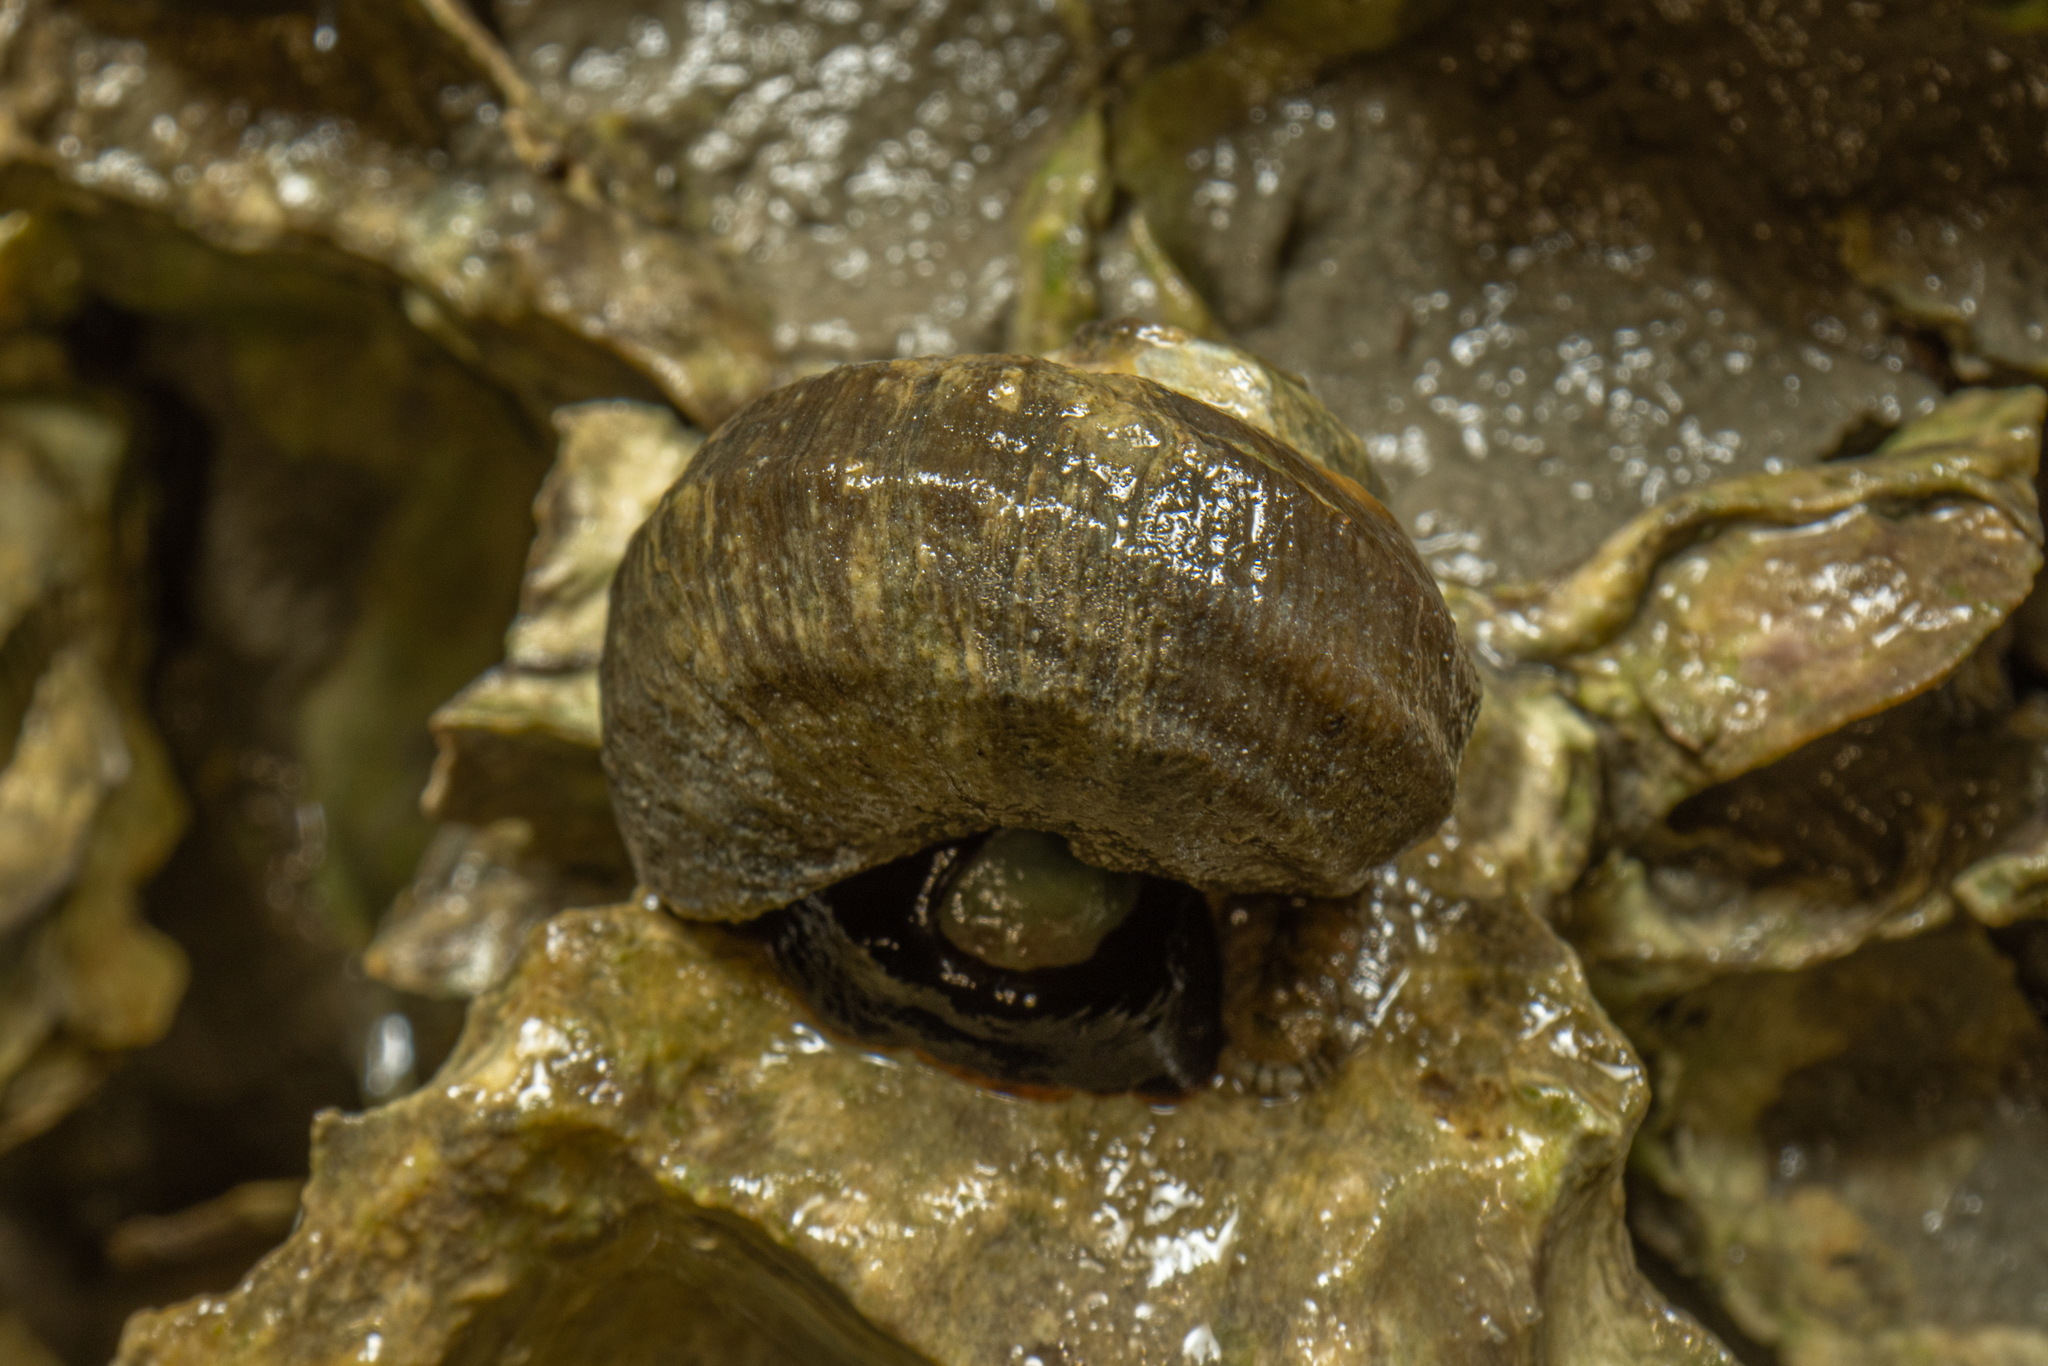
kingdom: Animalia
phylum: Mollusca
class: Gastropoda
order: Trochida
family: Turbinidae
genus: Lunella
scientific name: Lunella smaragda
